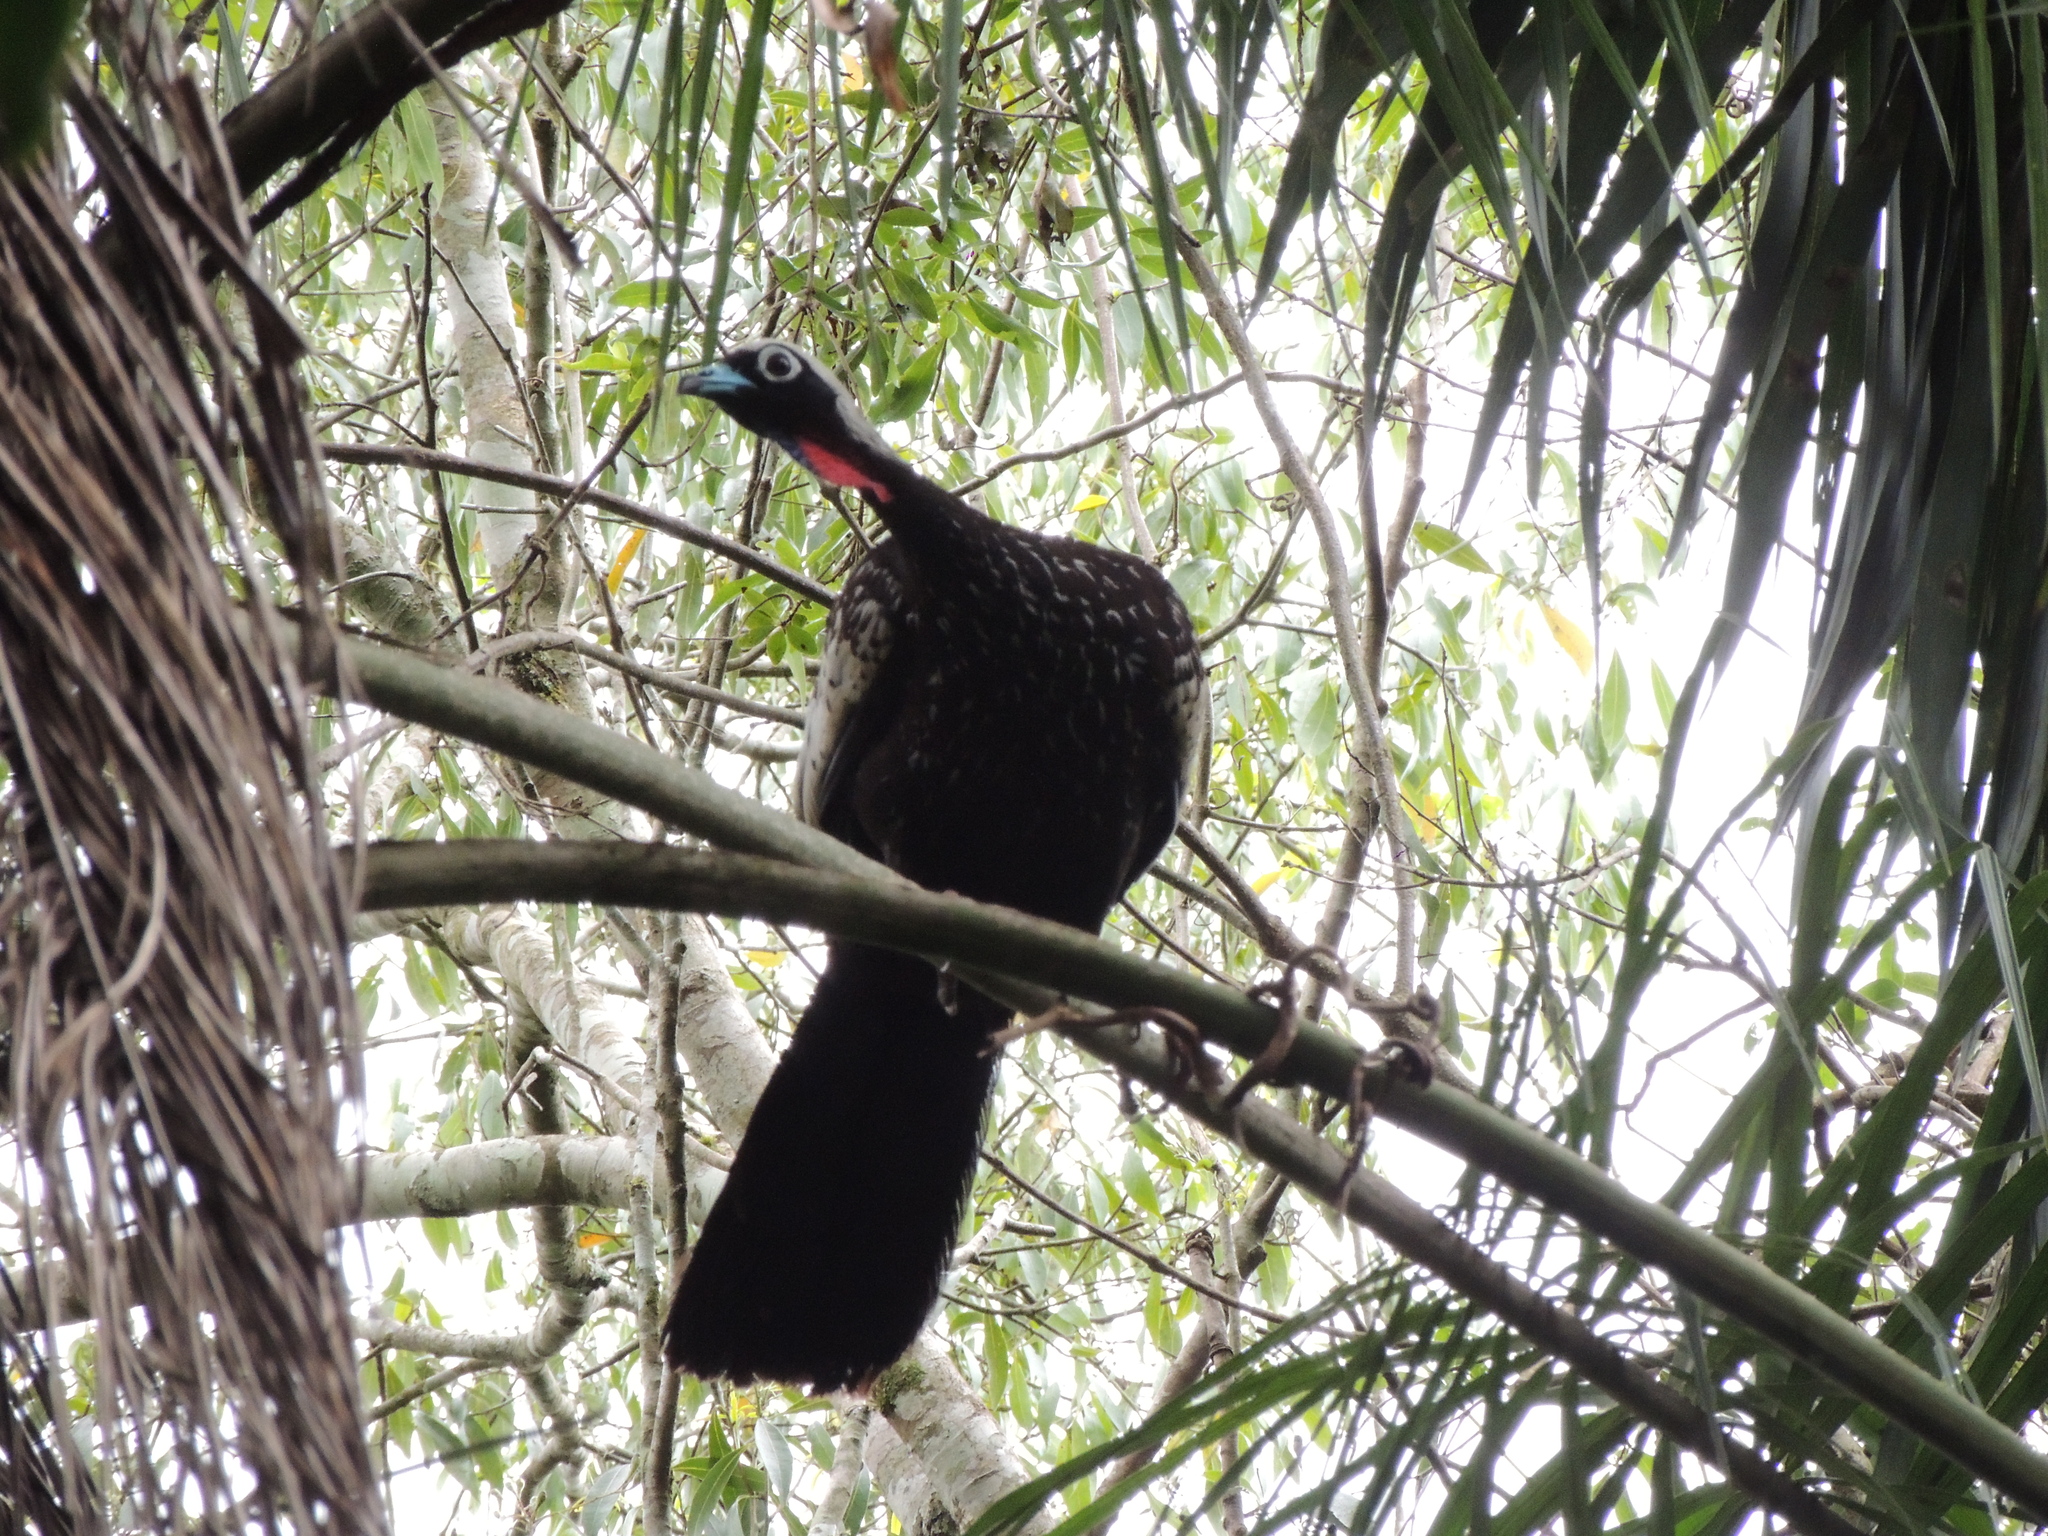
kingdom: Animalia
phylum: Chordata
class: Aves
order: Galliformes
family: Cracidae
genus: Pipile
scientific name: Pipile jacutinga
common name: Black-fronted piping-guan
